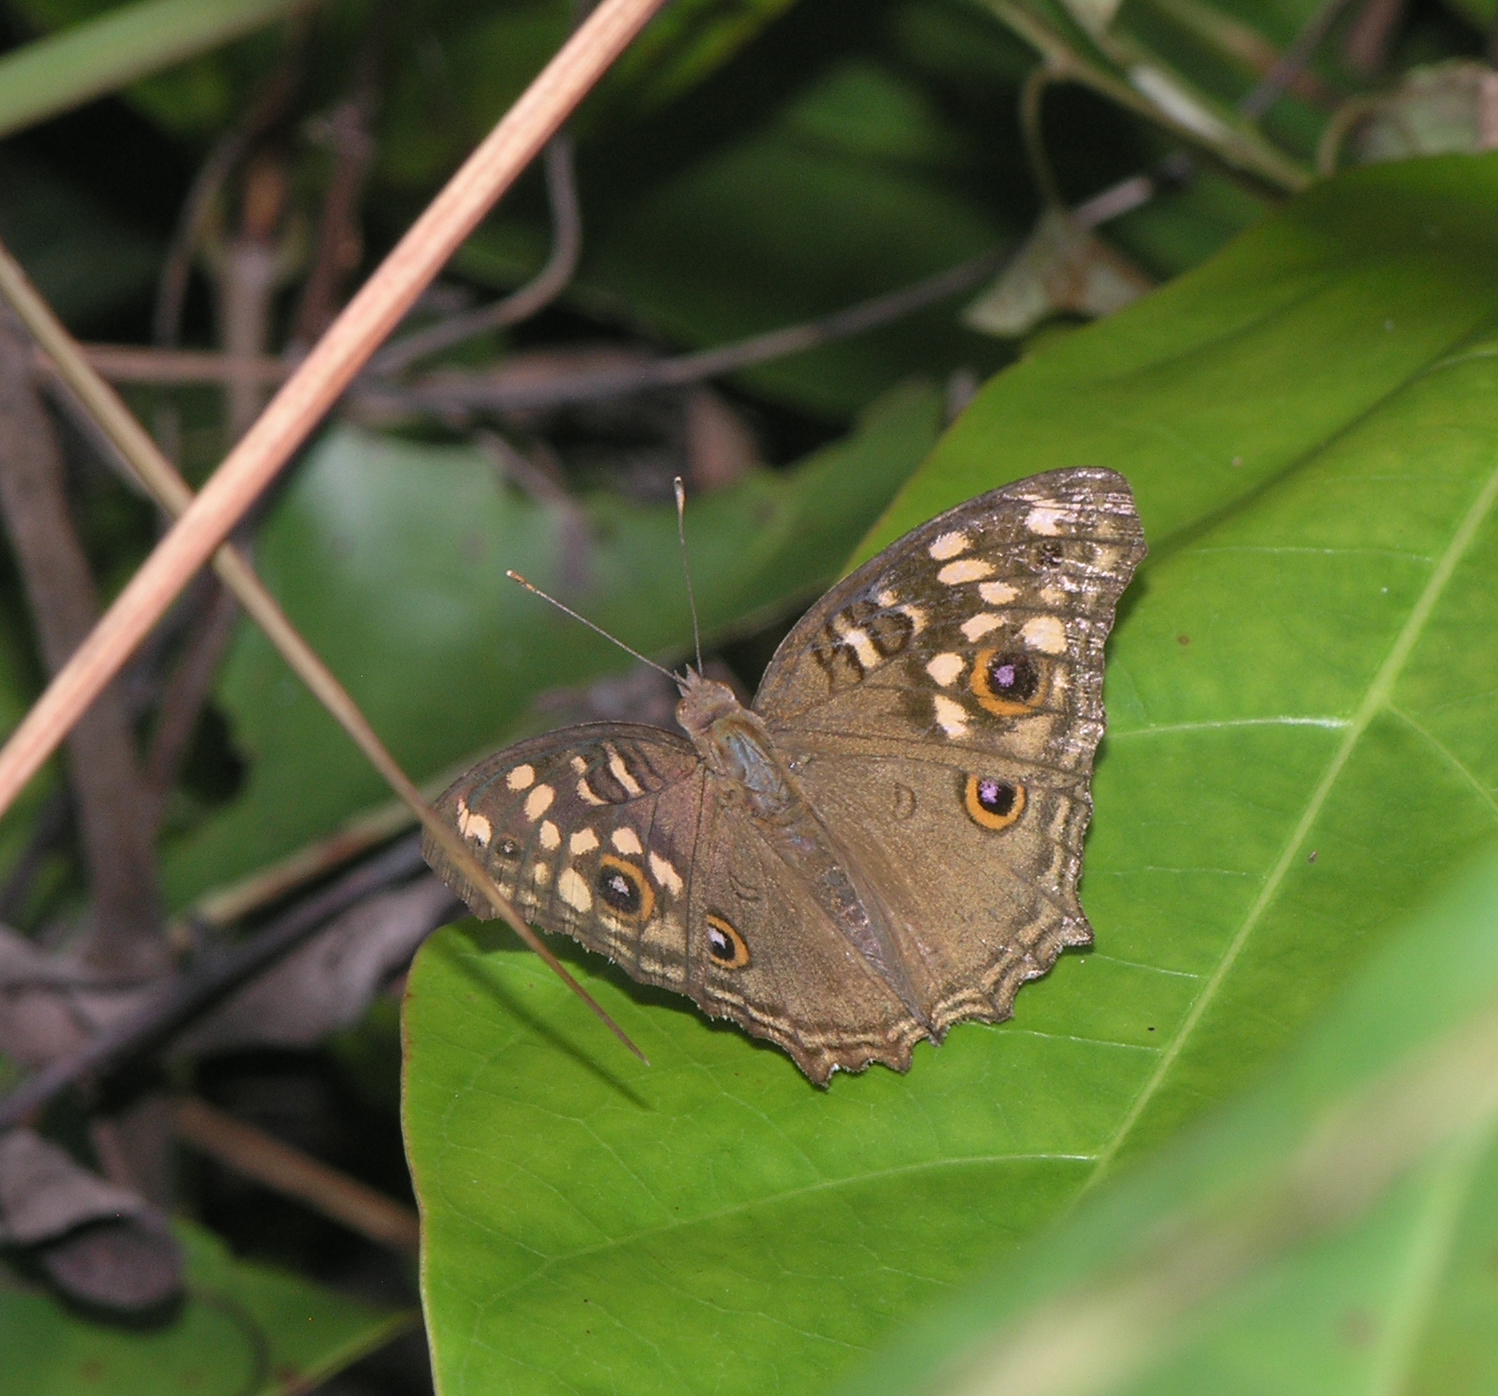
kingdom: Animalia
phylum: Arthropoda
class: Insecta
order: Lepidoptera
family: Nymphalidae
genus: Junonia
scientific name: Junonia lemonias
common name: Lemon pansy
